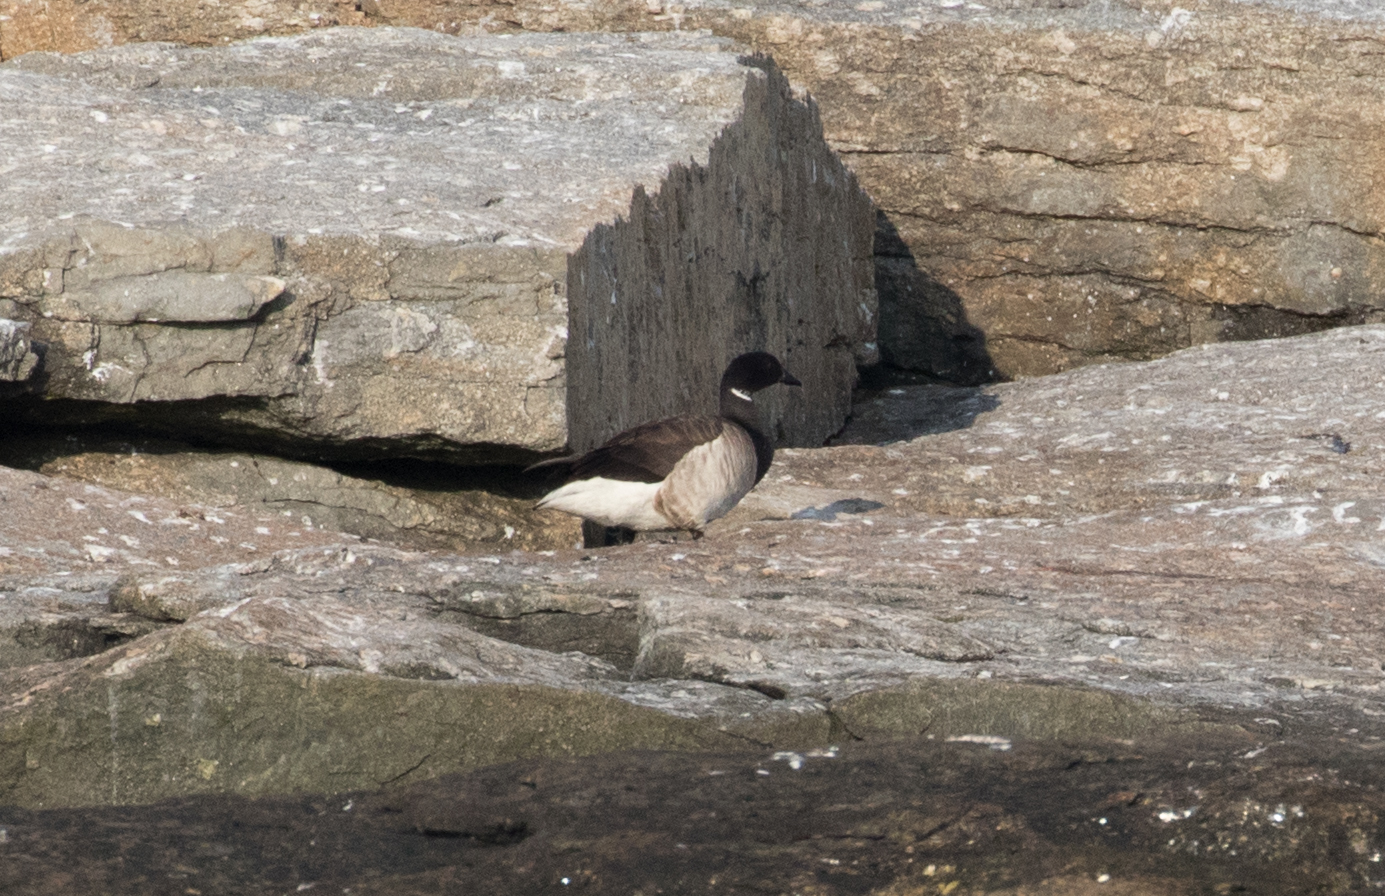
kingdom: Animalia
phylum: Chordata
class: Aves
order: Anseriformes
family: Anatidae
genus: Branta
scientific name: Branta bernicla
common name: Brant goose
